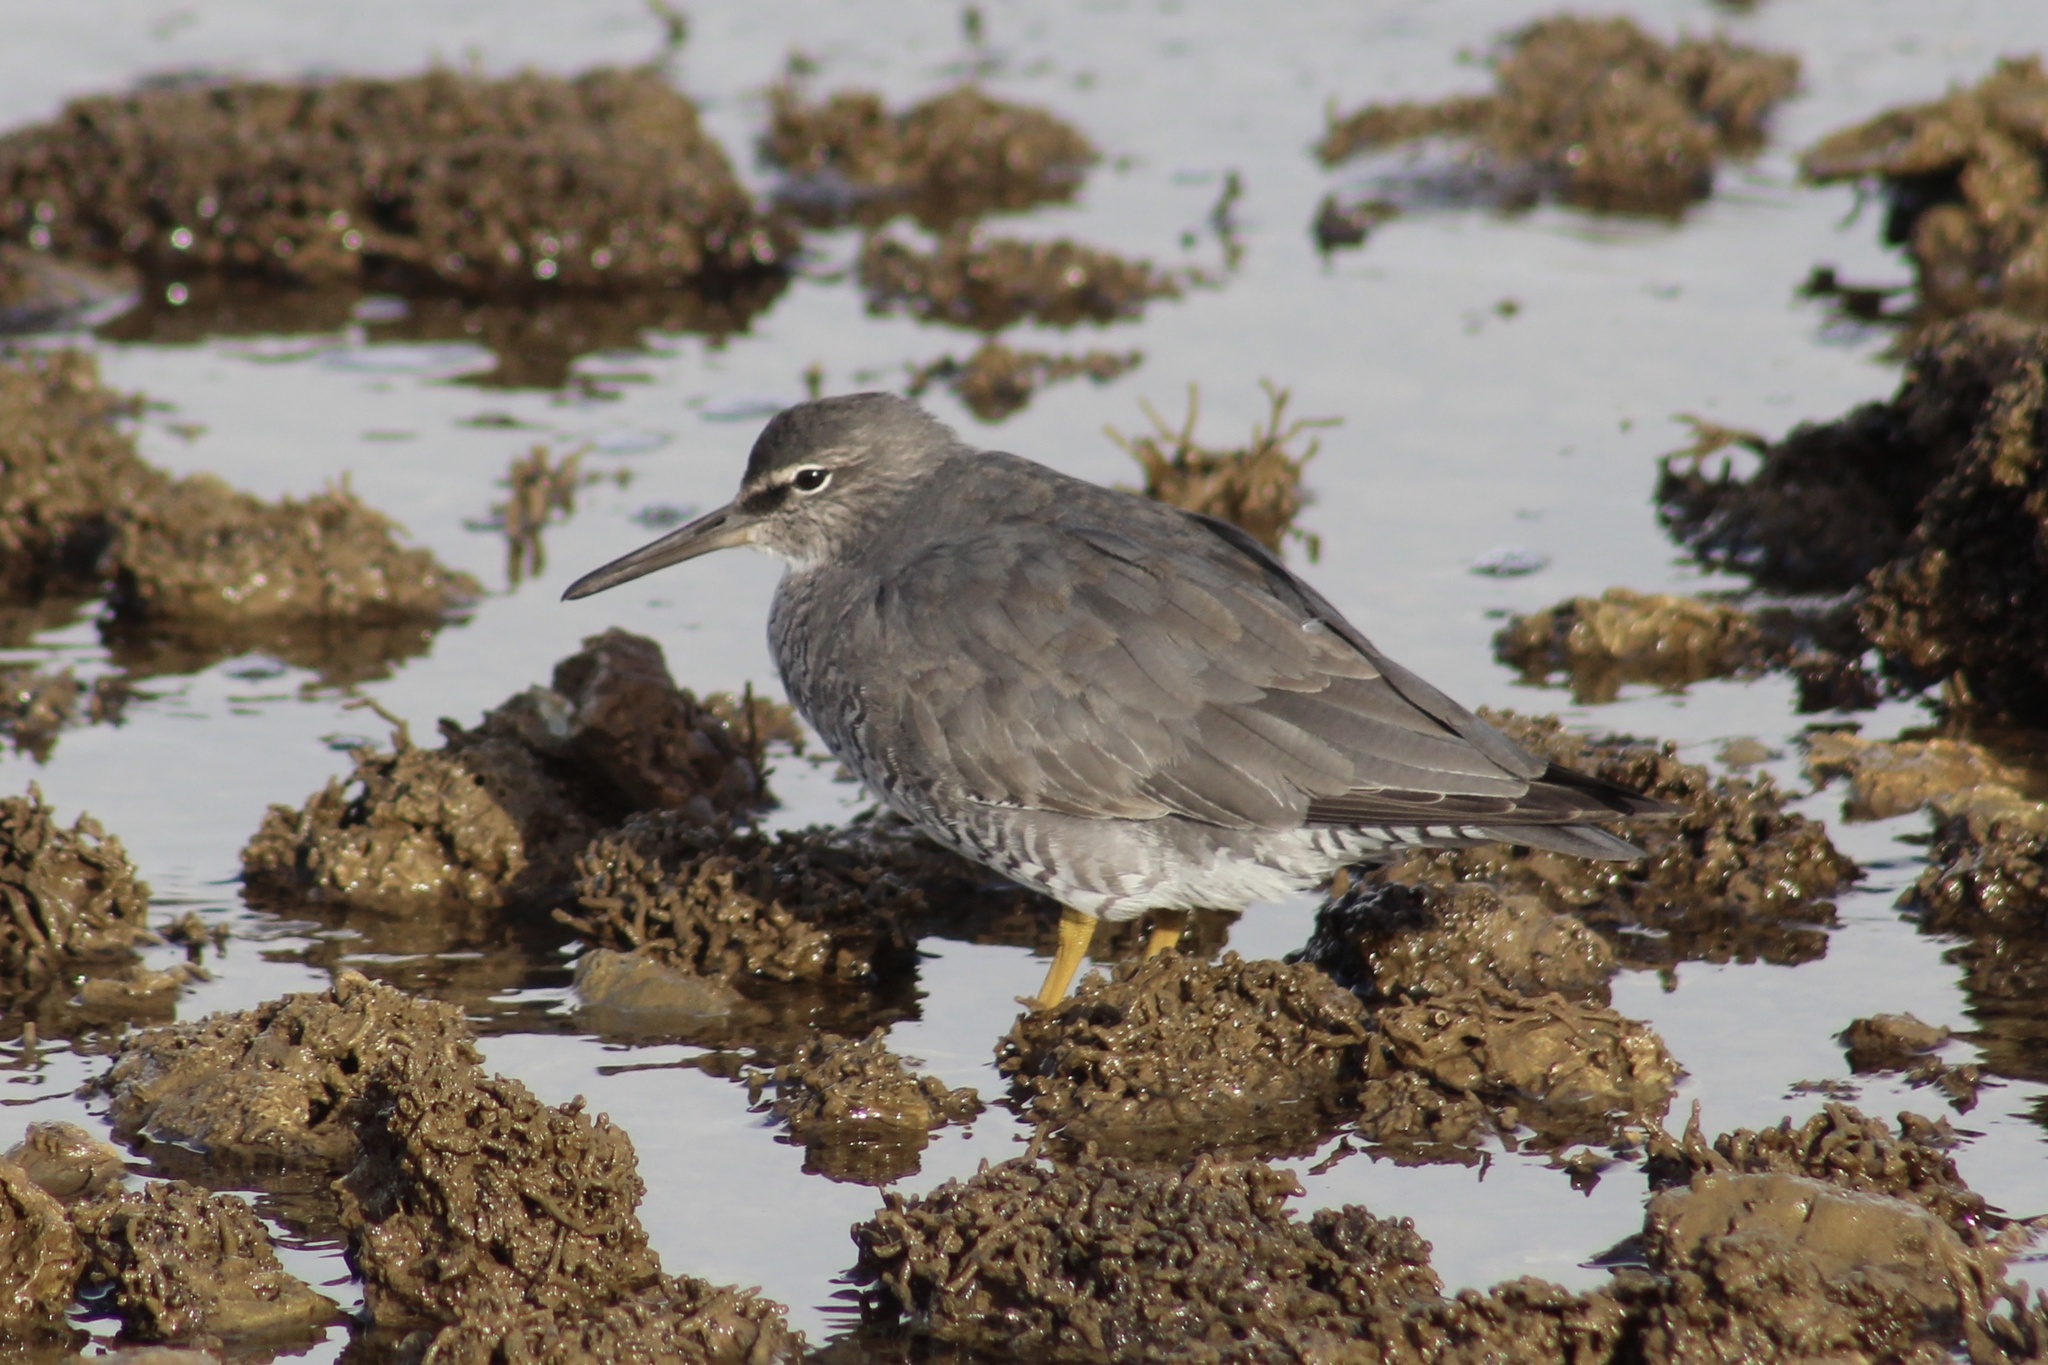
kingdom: Animalia
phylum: Chordata
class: Aves
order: Charadriiformes
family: Scolopacidae
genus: Tringa
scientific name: Tringa incana
